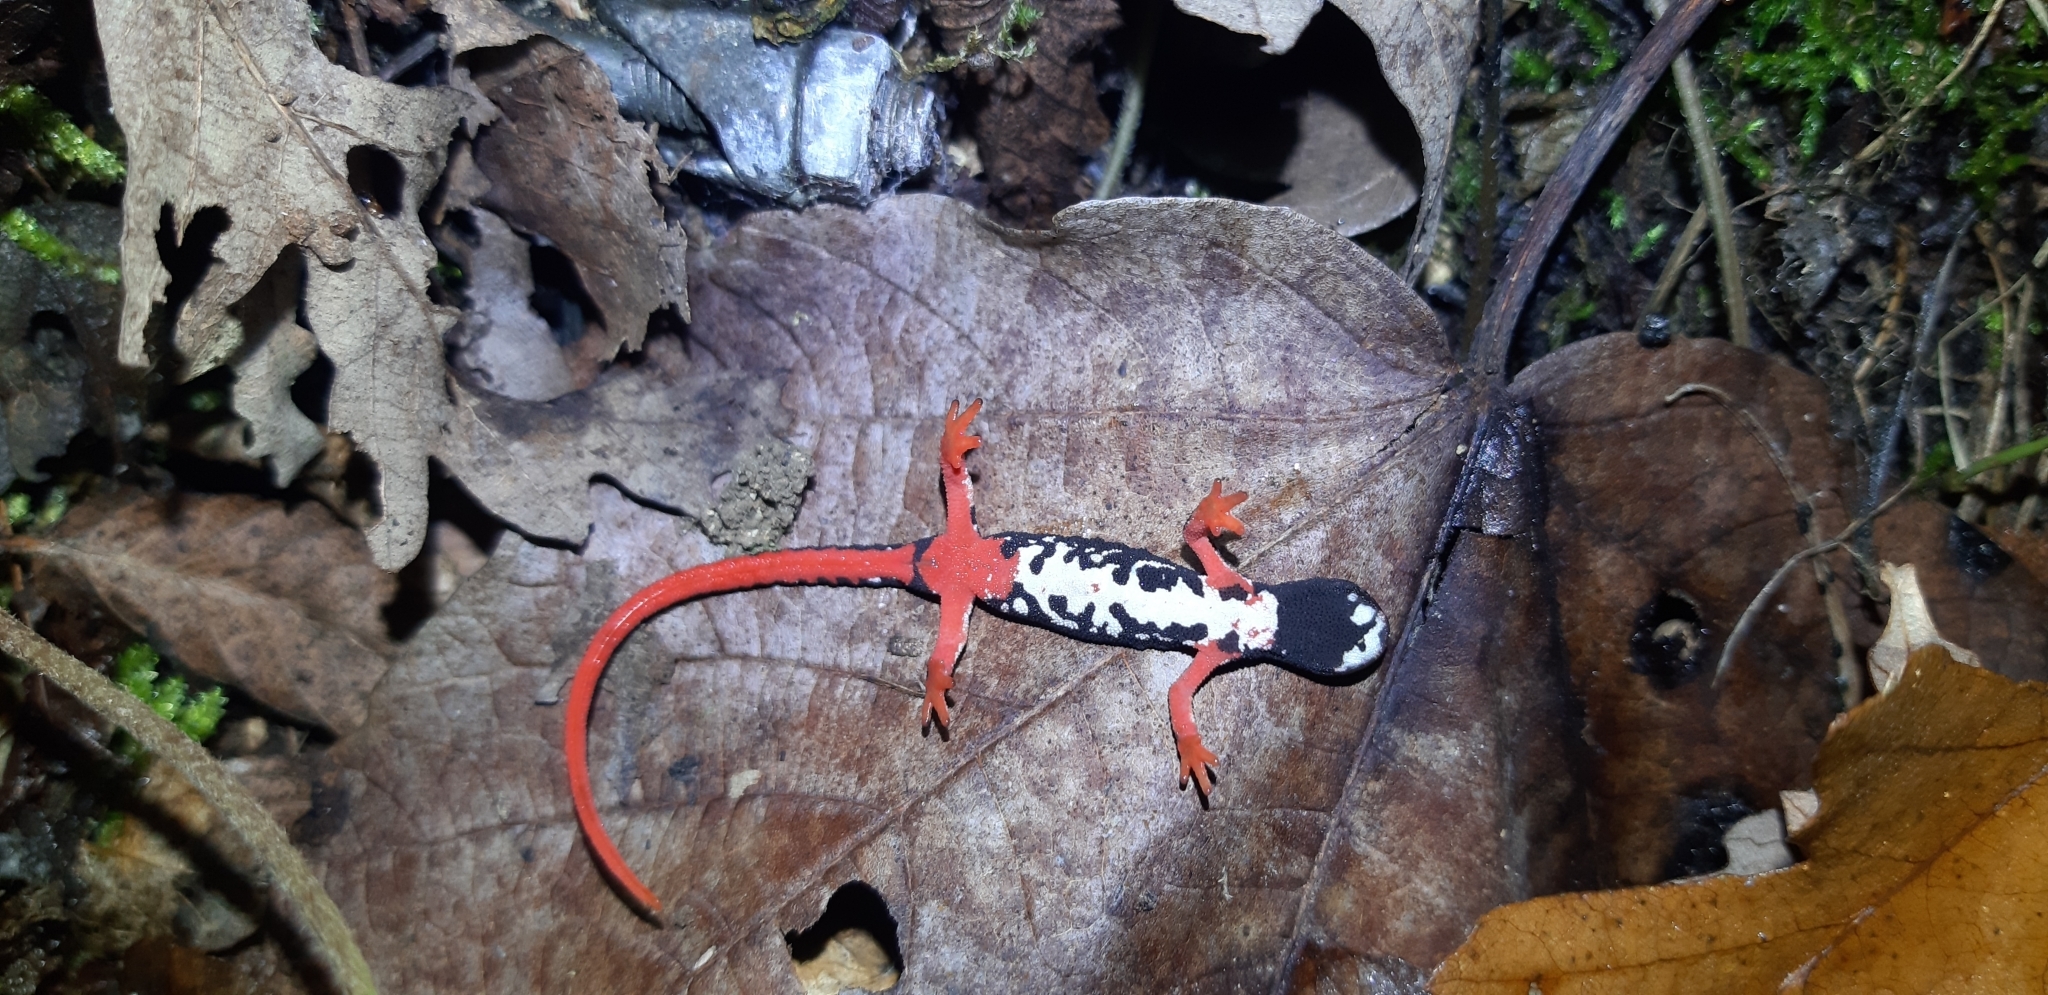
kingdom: Animalia
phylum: Chordata
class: Amphibia
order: Caudata
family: Salamandridae
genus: Salamandrina
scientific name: Salamandrina perspicillata
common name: Northern spectacled salamander
